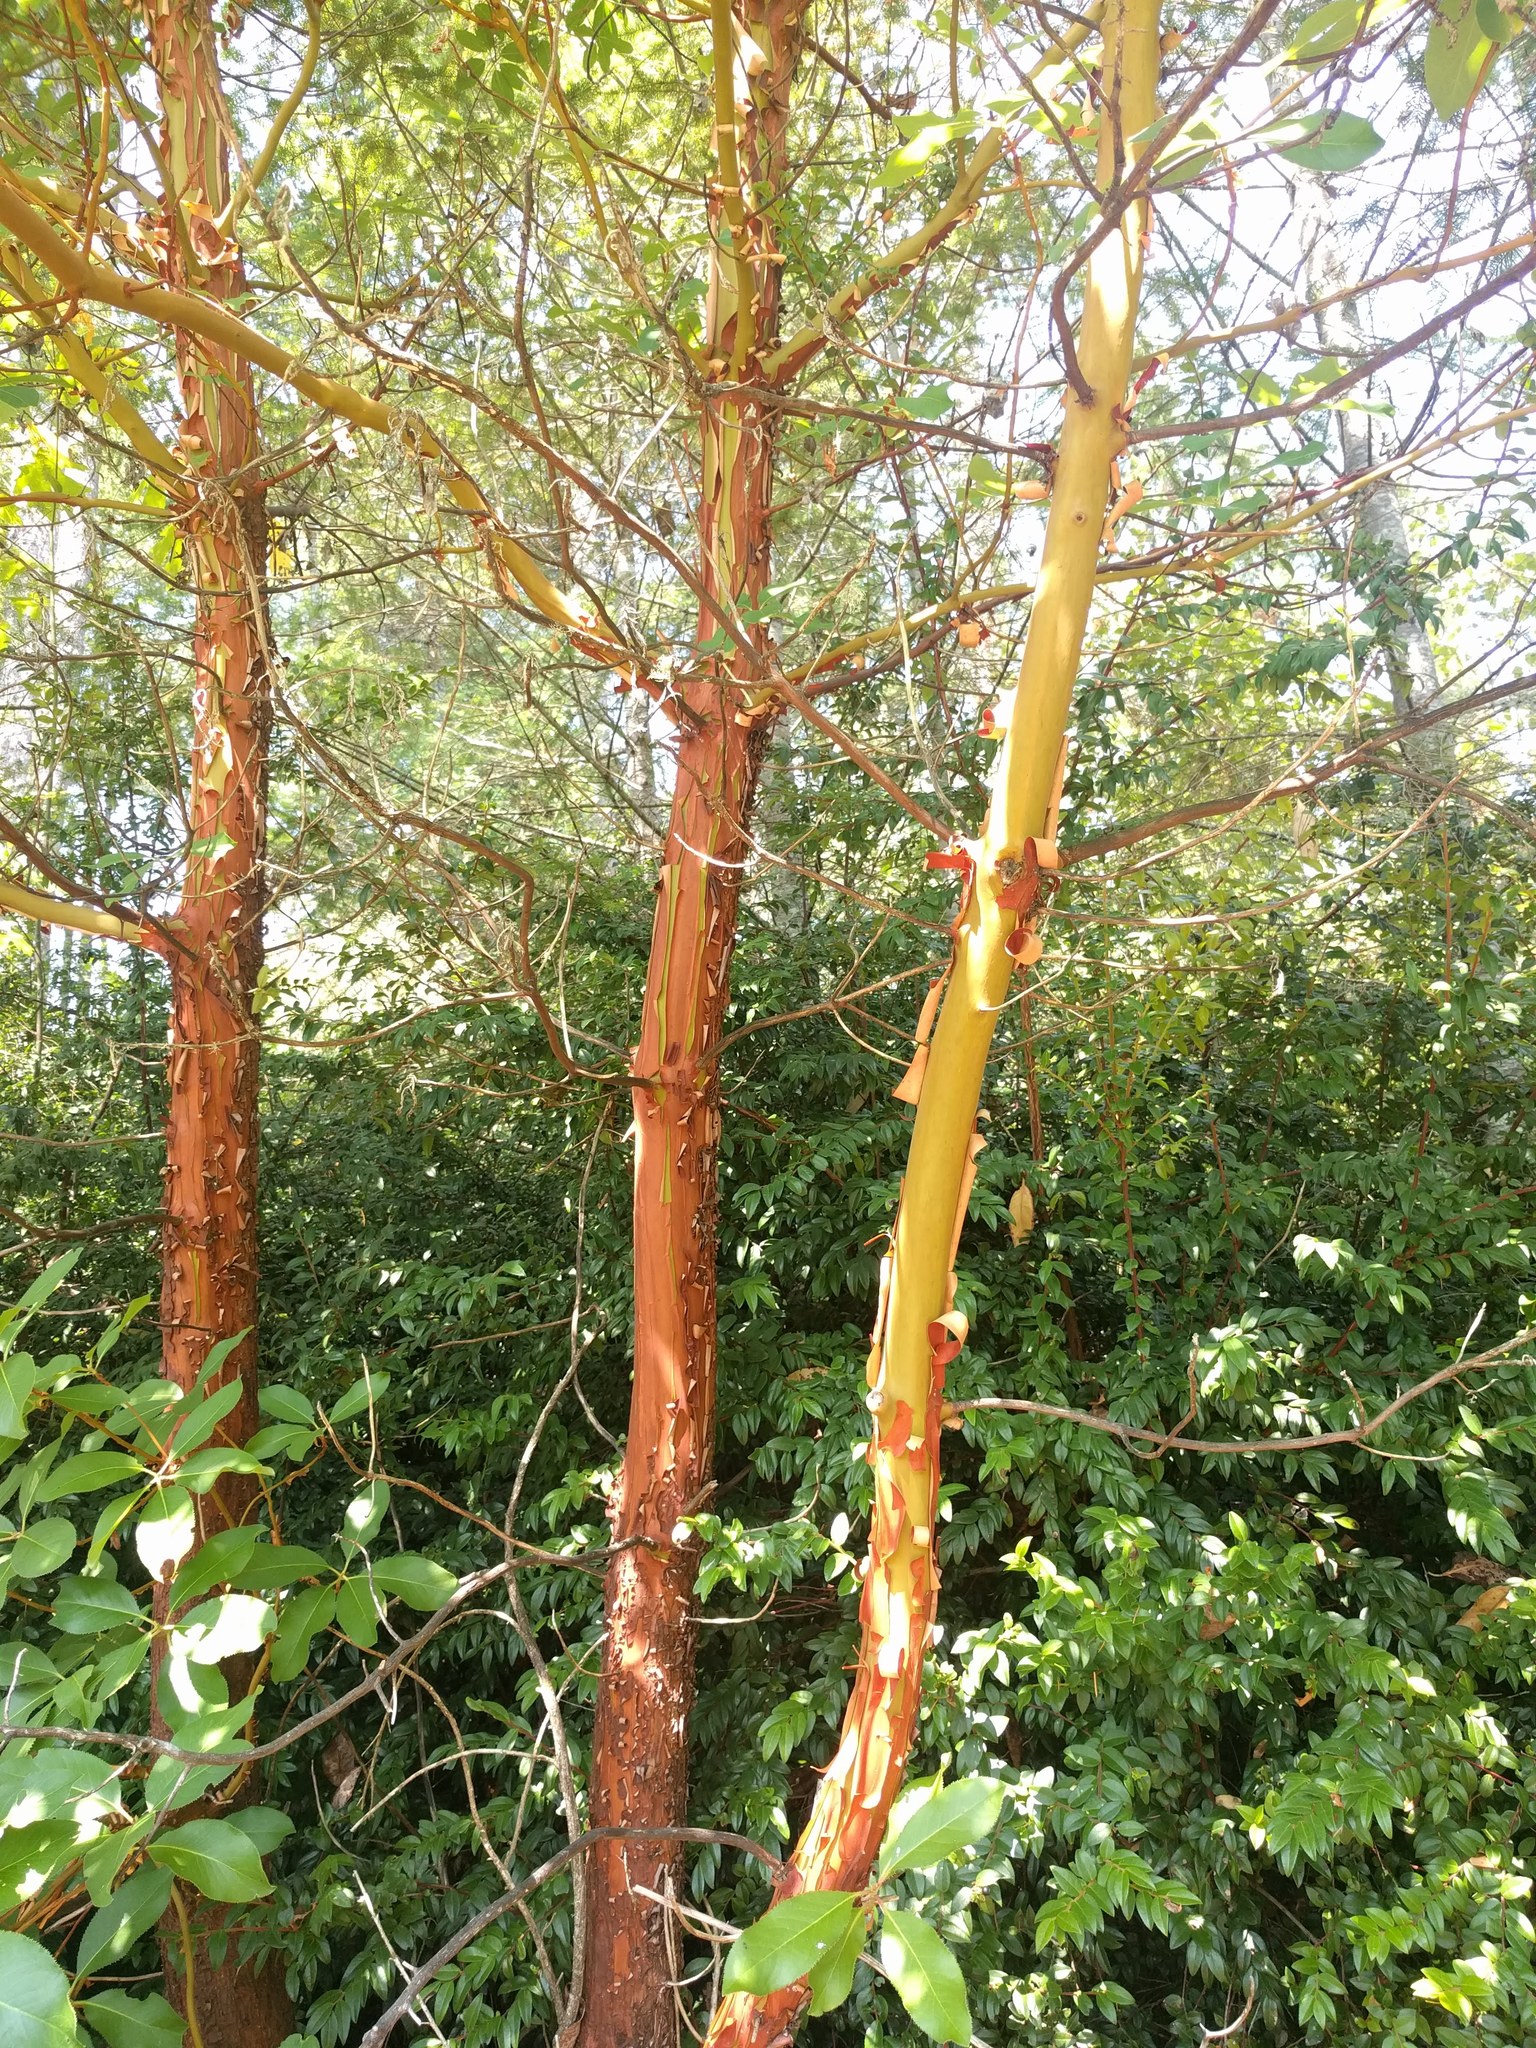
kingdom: Plantae
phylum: Tracheophyta
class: Magnoliopsida
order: Ericales
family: Ericaceae
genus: Arbutus
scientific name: Arbutus menziesii
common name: Pacific madrone
